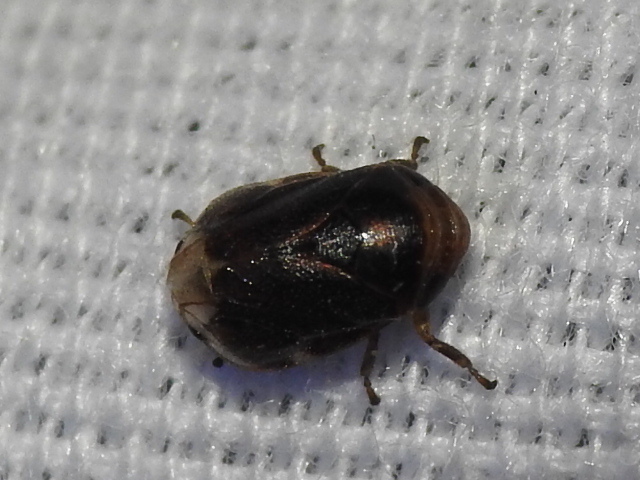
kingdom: Animalia
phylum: Arthropoda
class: Insecta
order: Hemiptera
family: Clastopteridae
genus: Clastoptera
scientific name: Clastoptera xanthocephala
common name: Sunflower spittlebug
